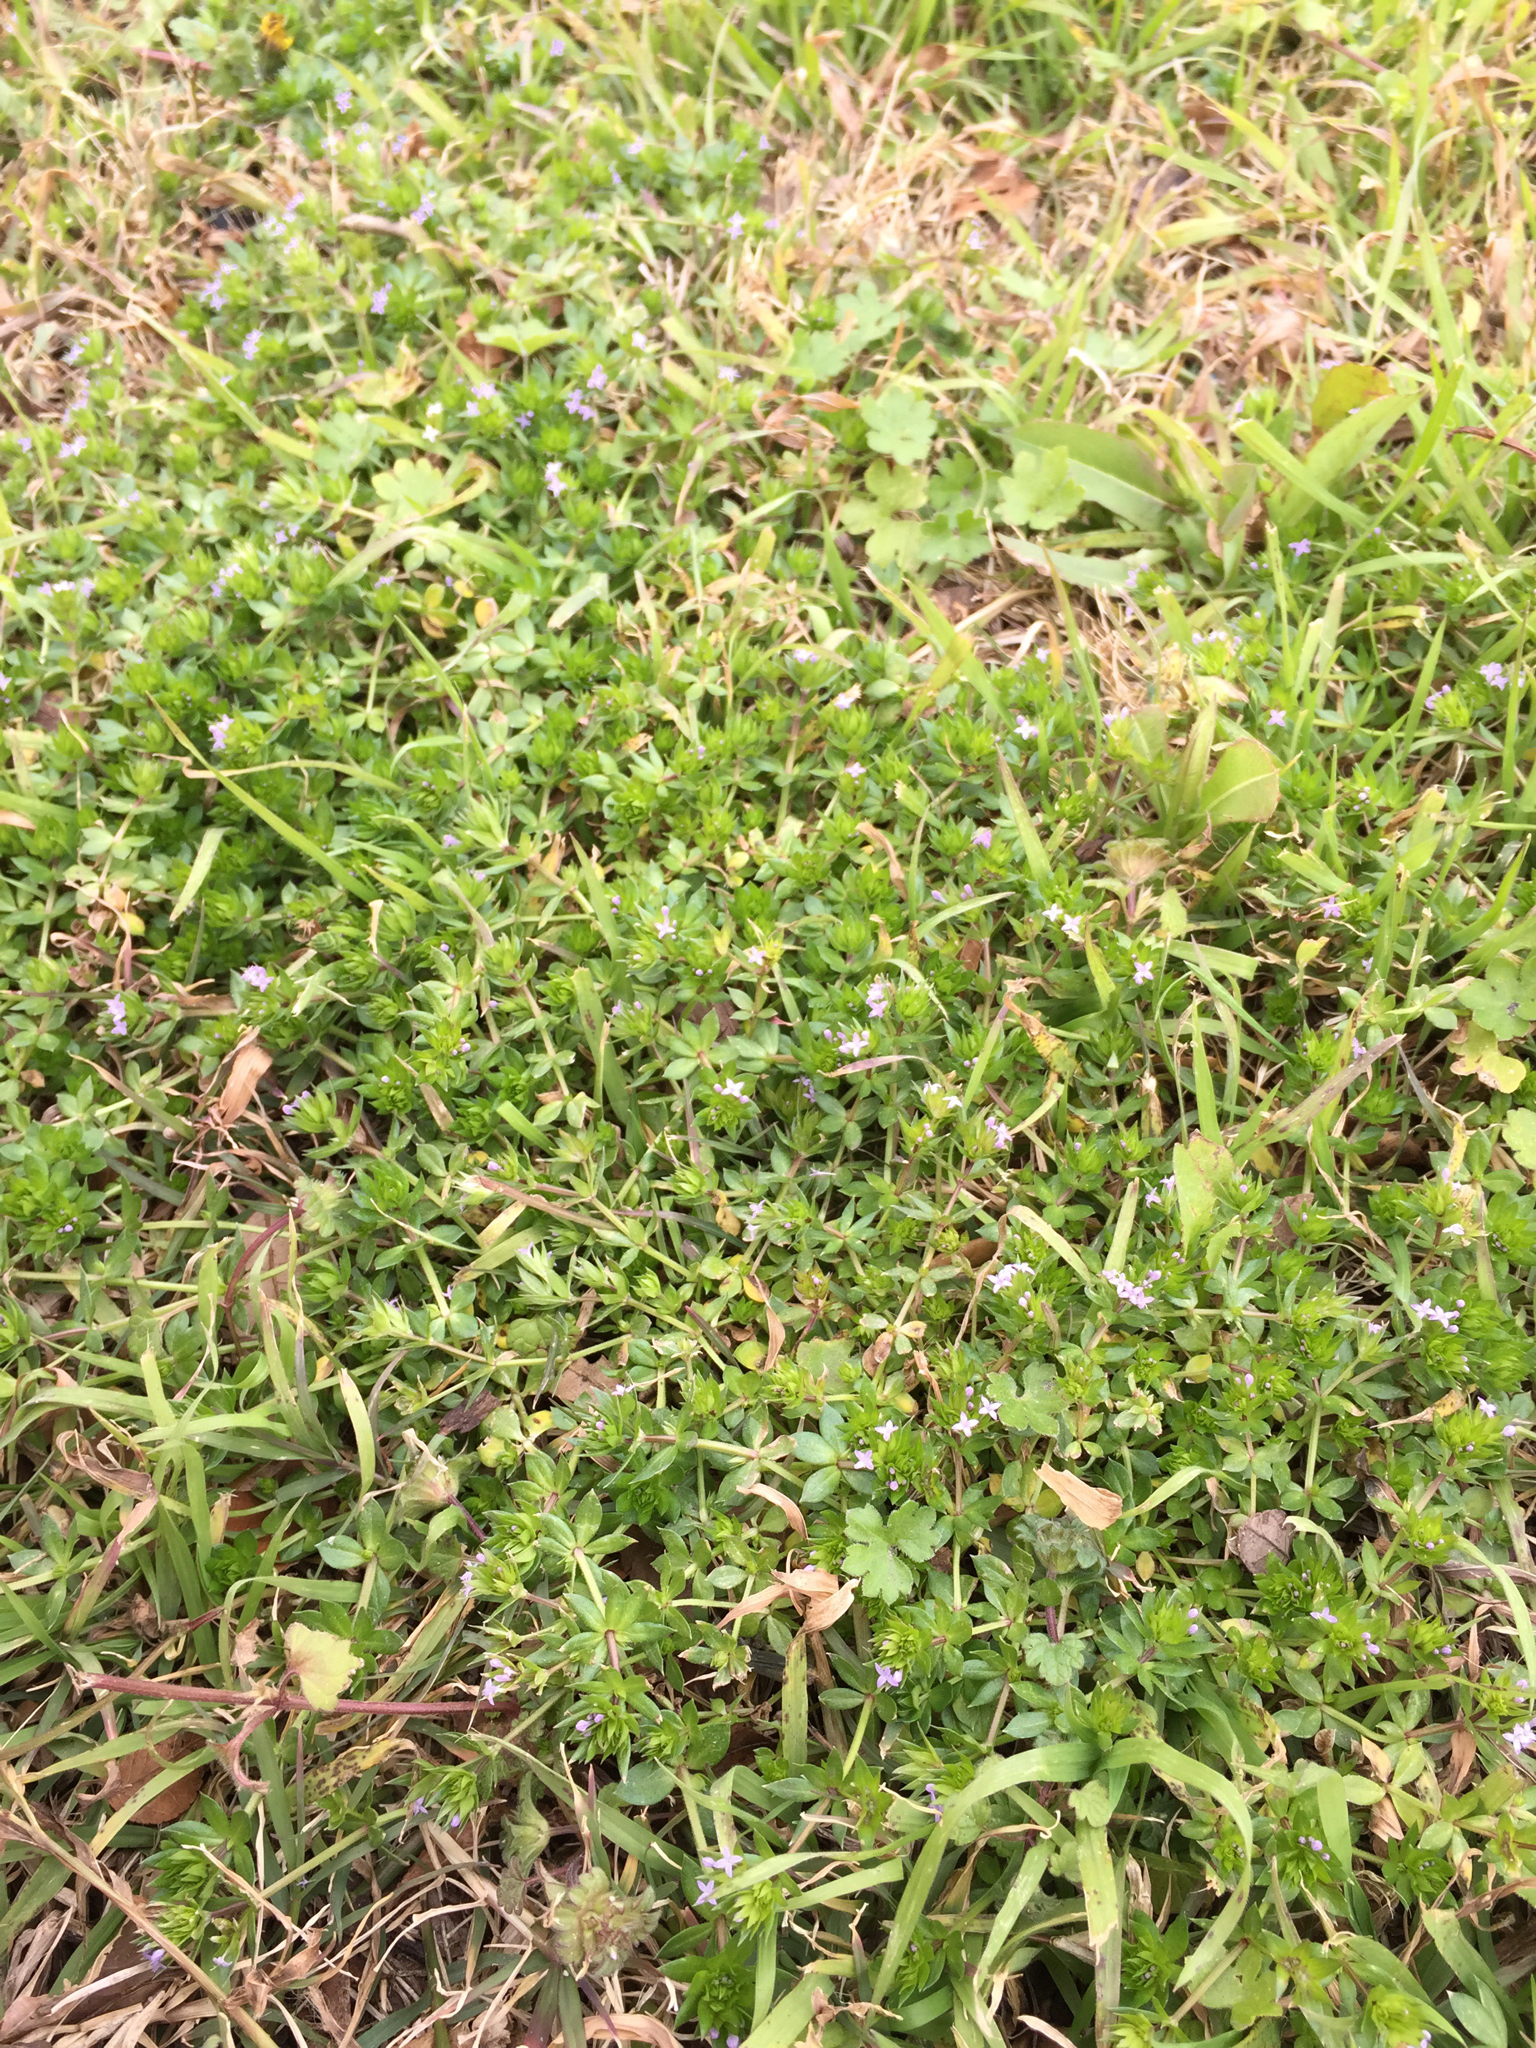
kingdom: Plantae
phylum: Tracheophyta
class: Magnoliopsida
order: Gentianales
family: Rubiaceae
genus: Sherardia
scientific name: Sherardia arvensis
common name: Field madder
